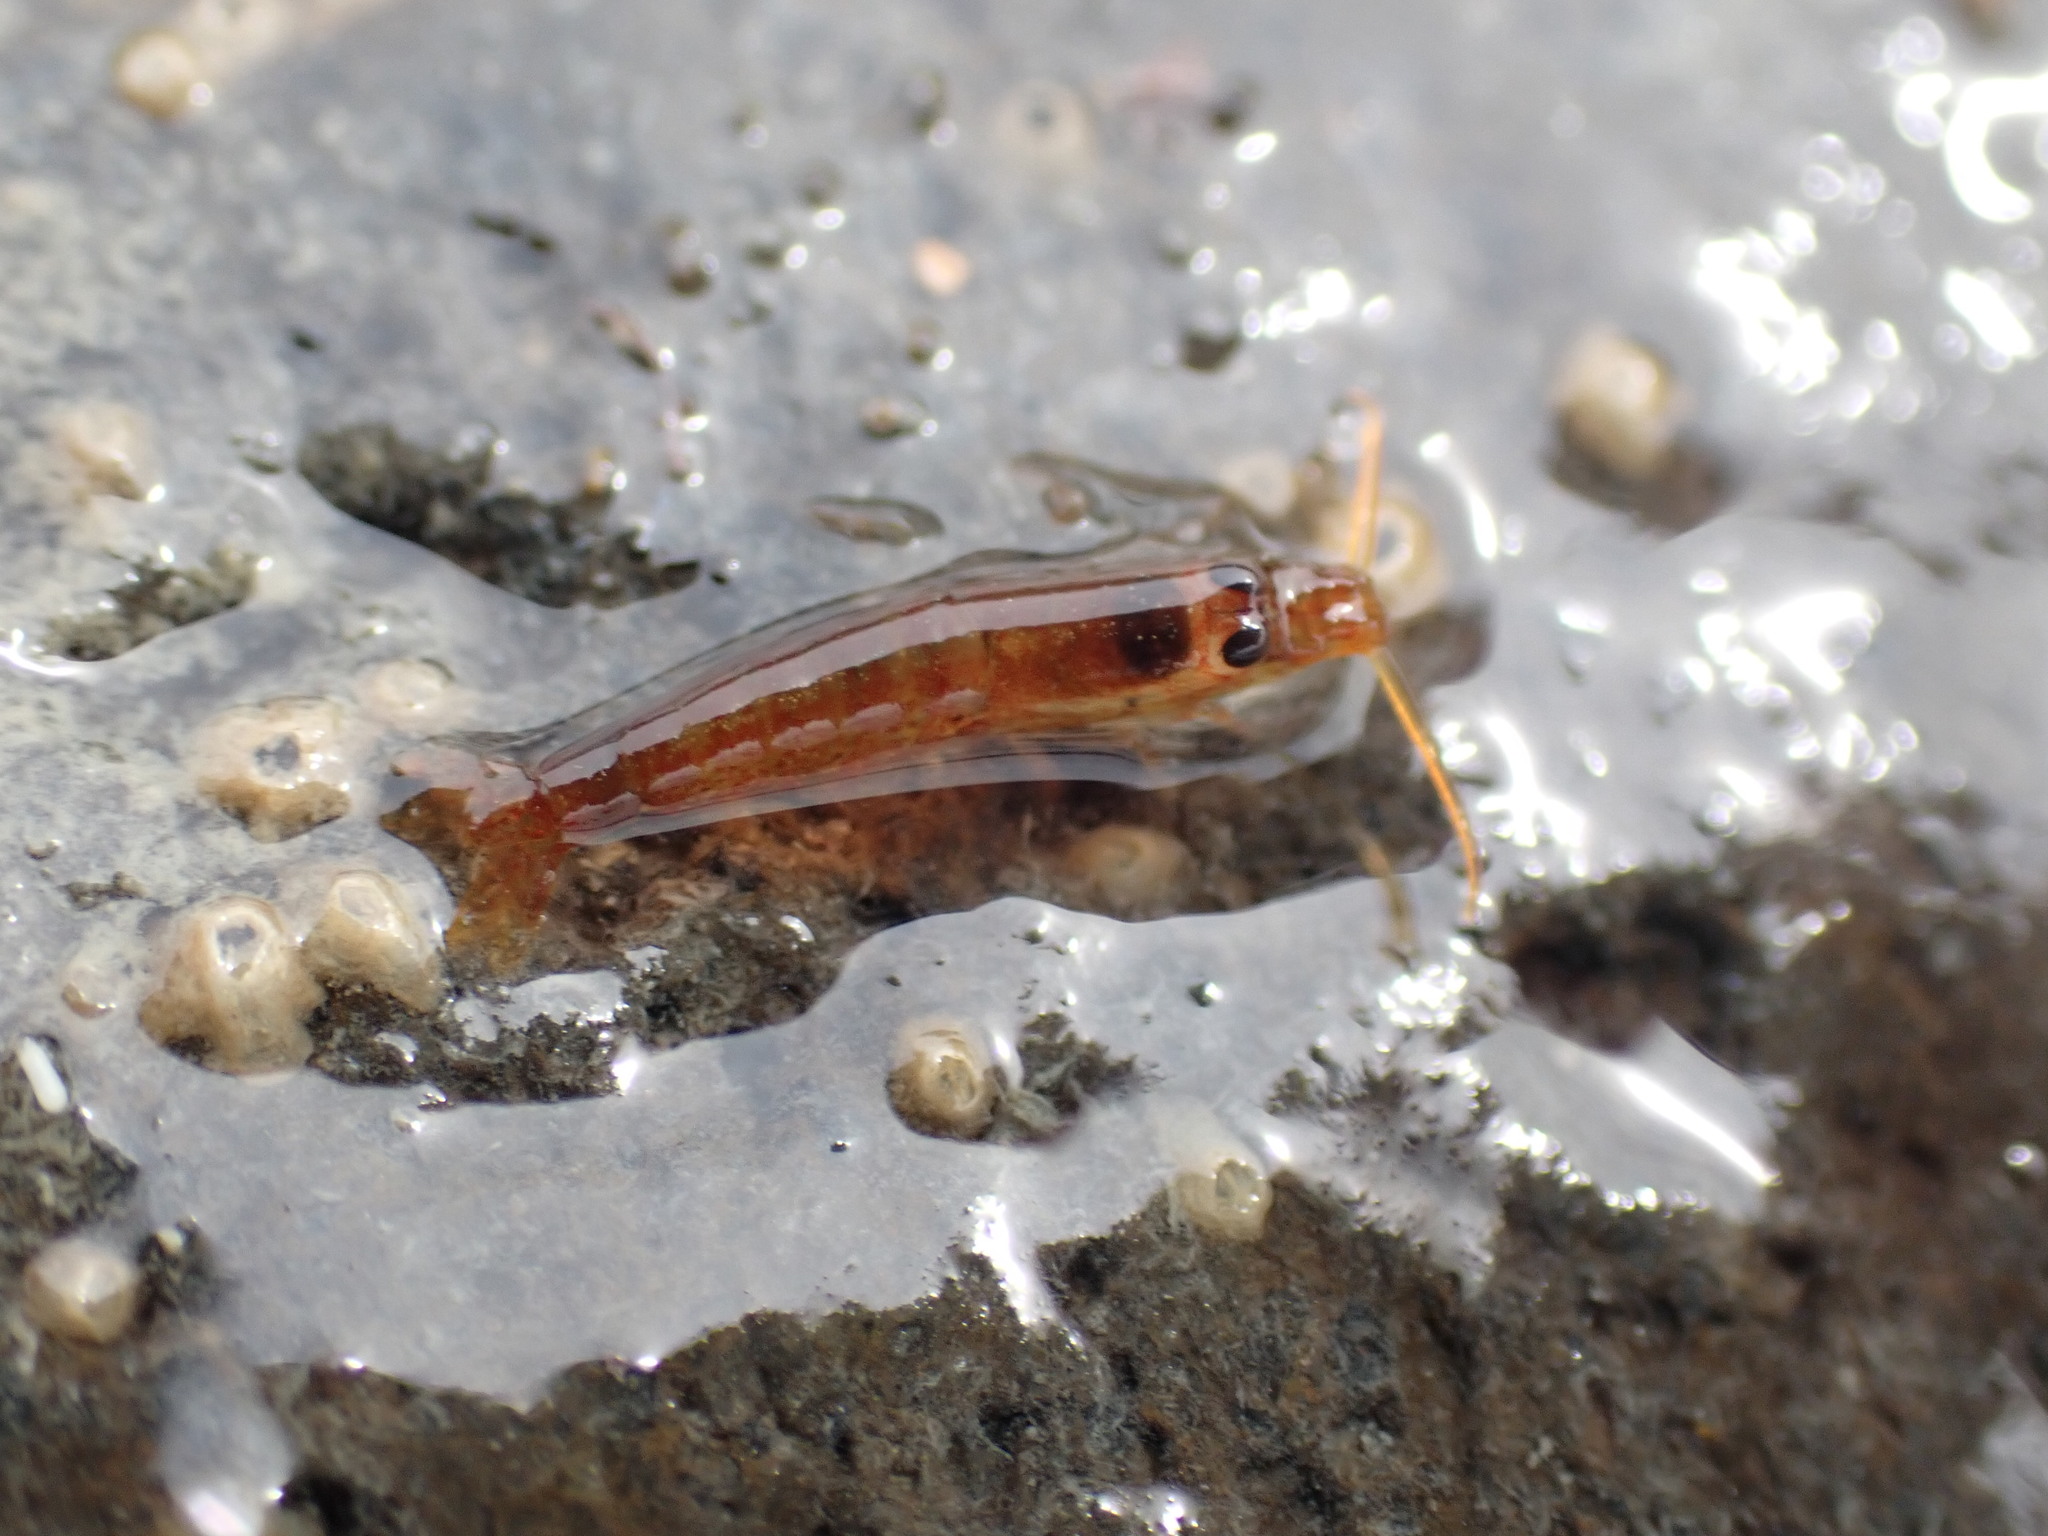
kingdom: Animalia
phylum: Arthropoda
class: Malacostraca
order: Decapoda
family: Alpheidae
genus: Betaeopsis
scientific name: Betaeopsis aequimanus
